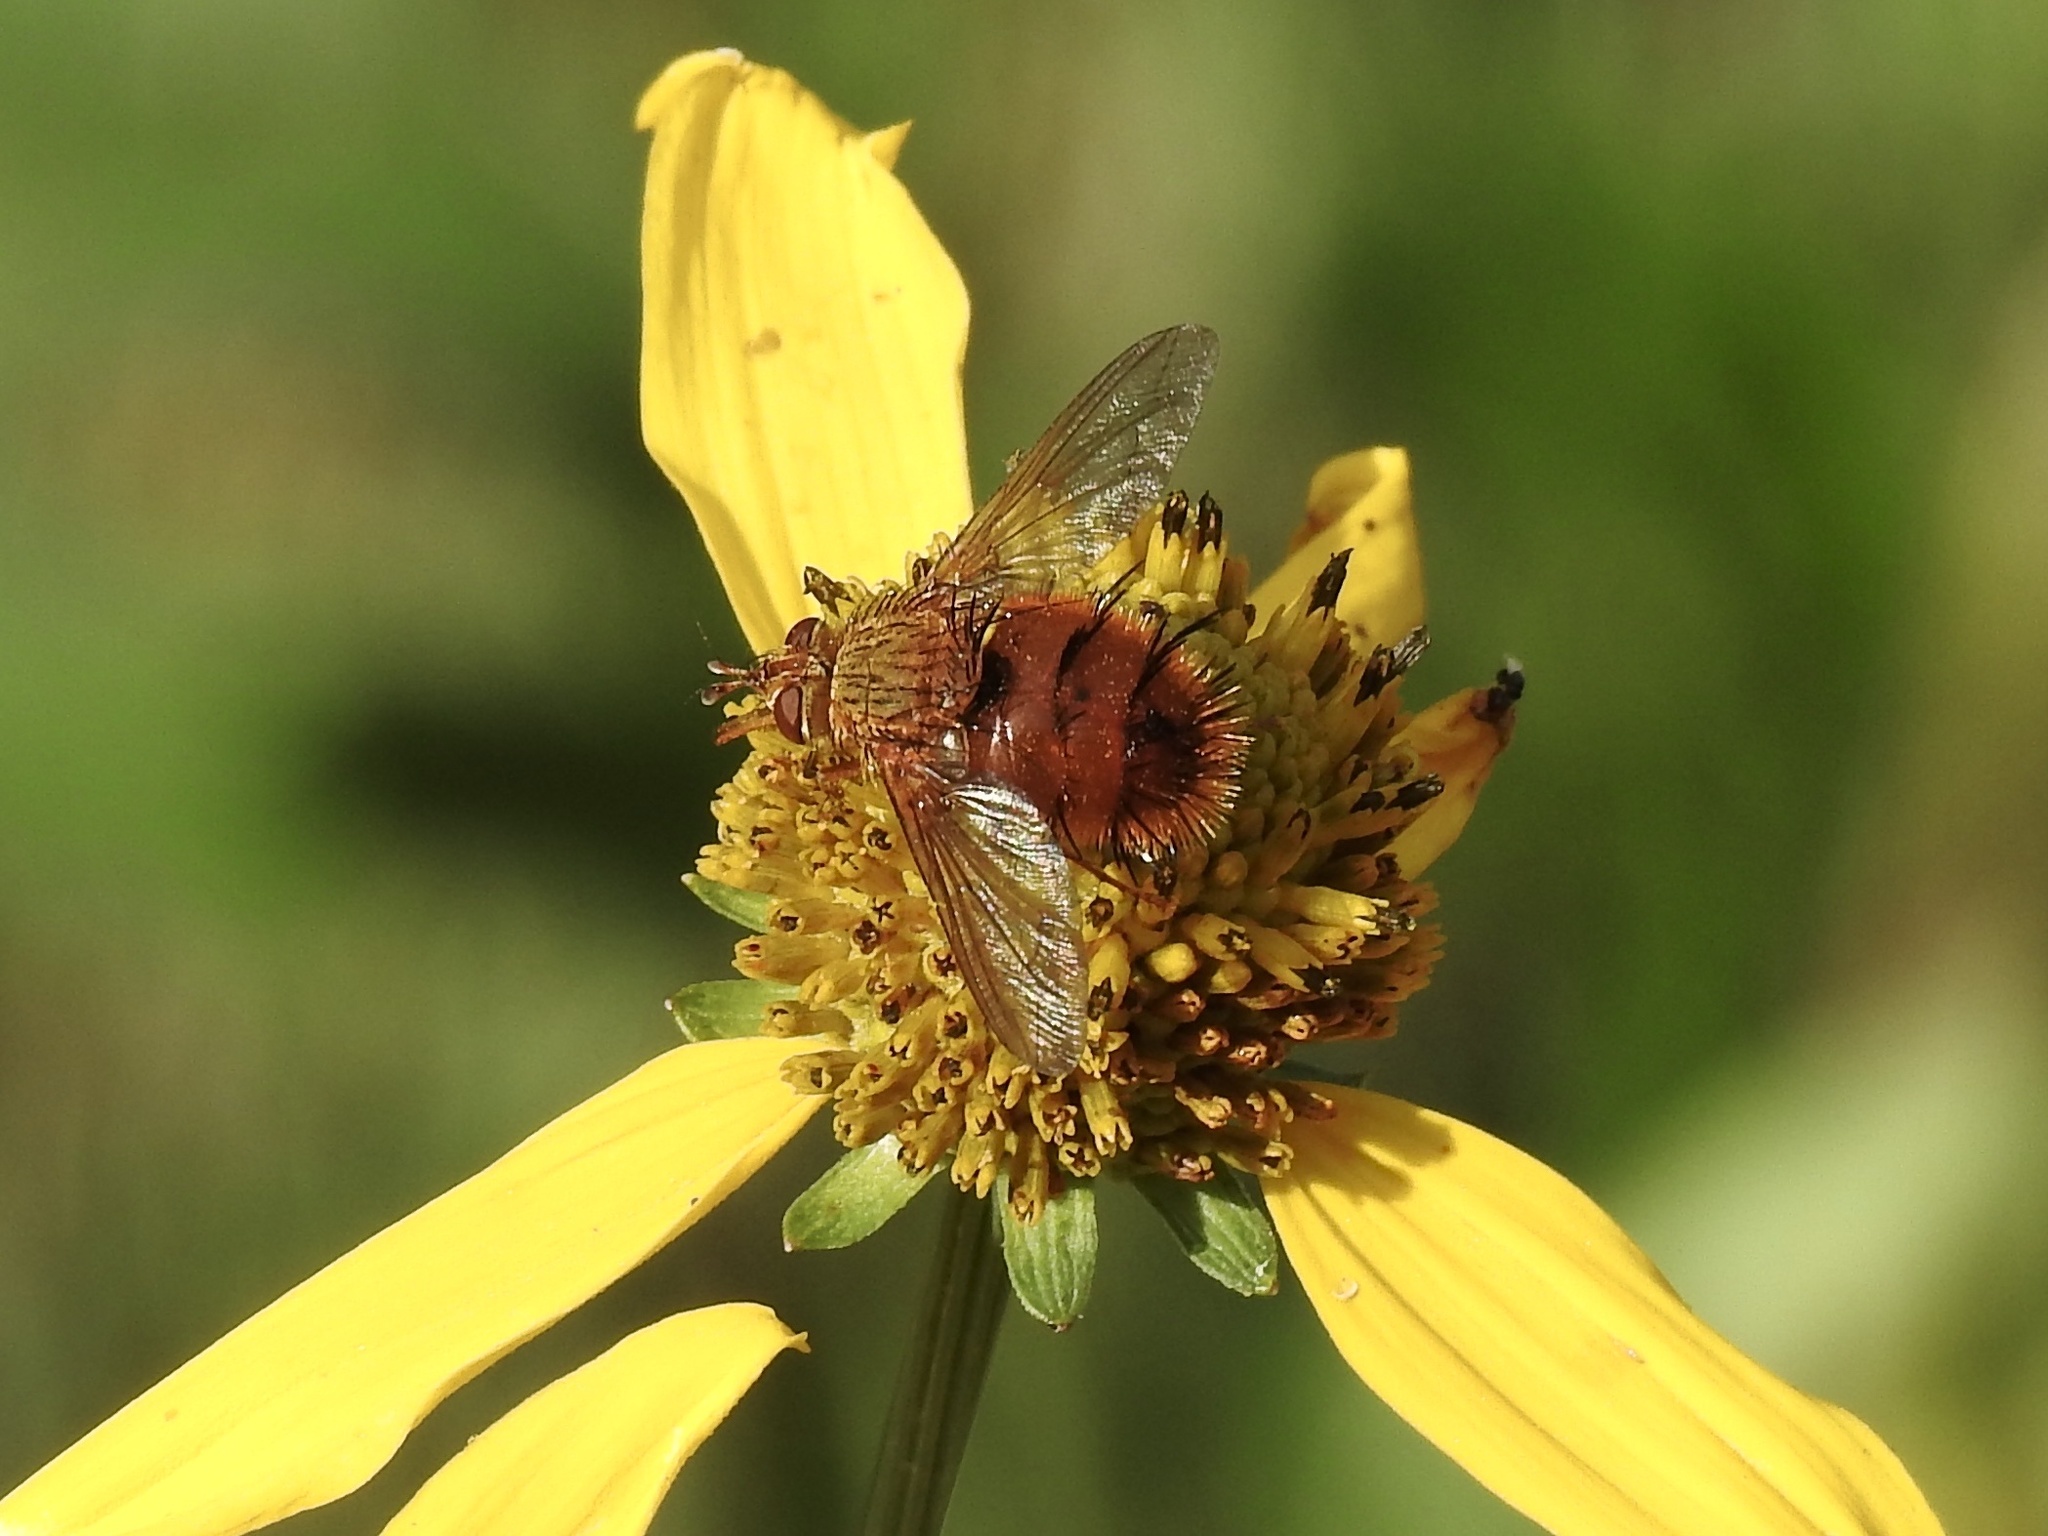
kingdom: Animalia
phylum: Arthropoda
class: Insecta
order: Diptera
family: Tachinidae
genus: Adejeania
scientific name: Adejeania vexatrix
